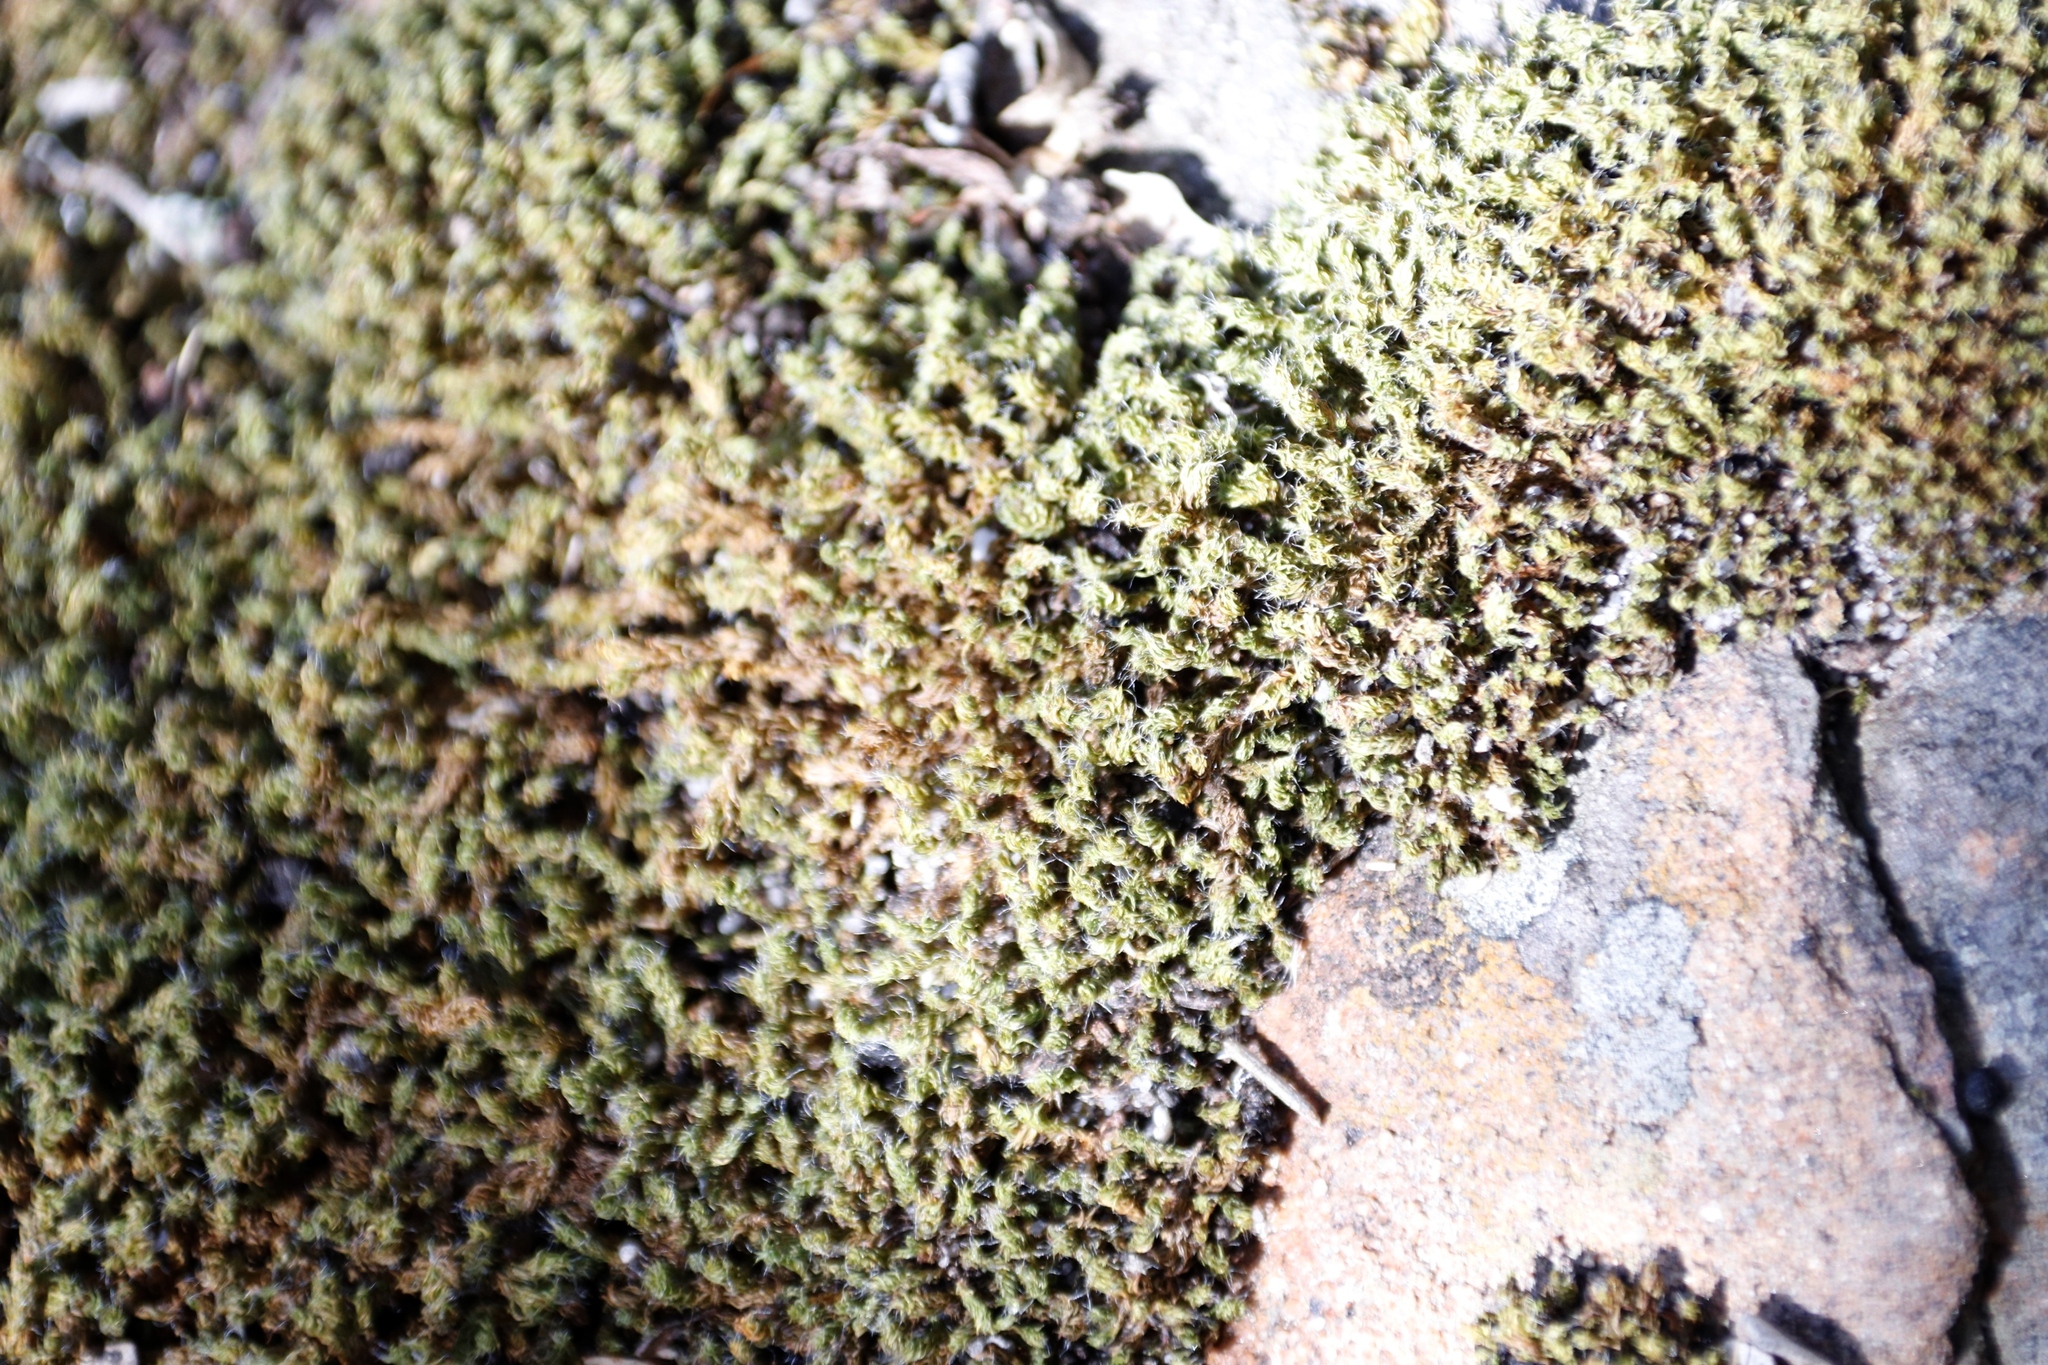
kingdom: Plantae
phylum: Bryophyta
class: Bryopsida
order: Pottiales
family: Pottiaceae
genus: Pseudocrossidium
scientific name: Pseudocrossidium crinitum
